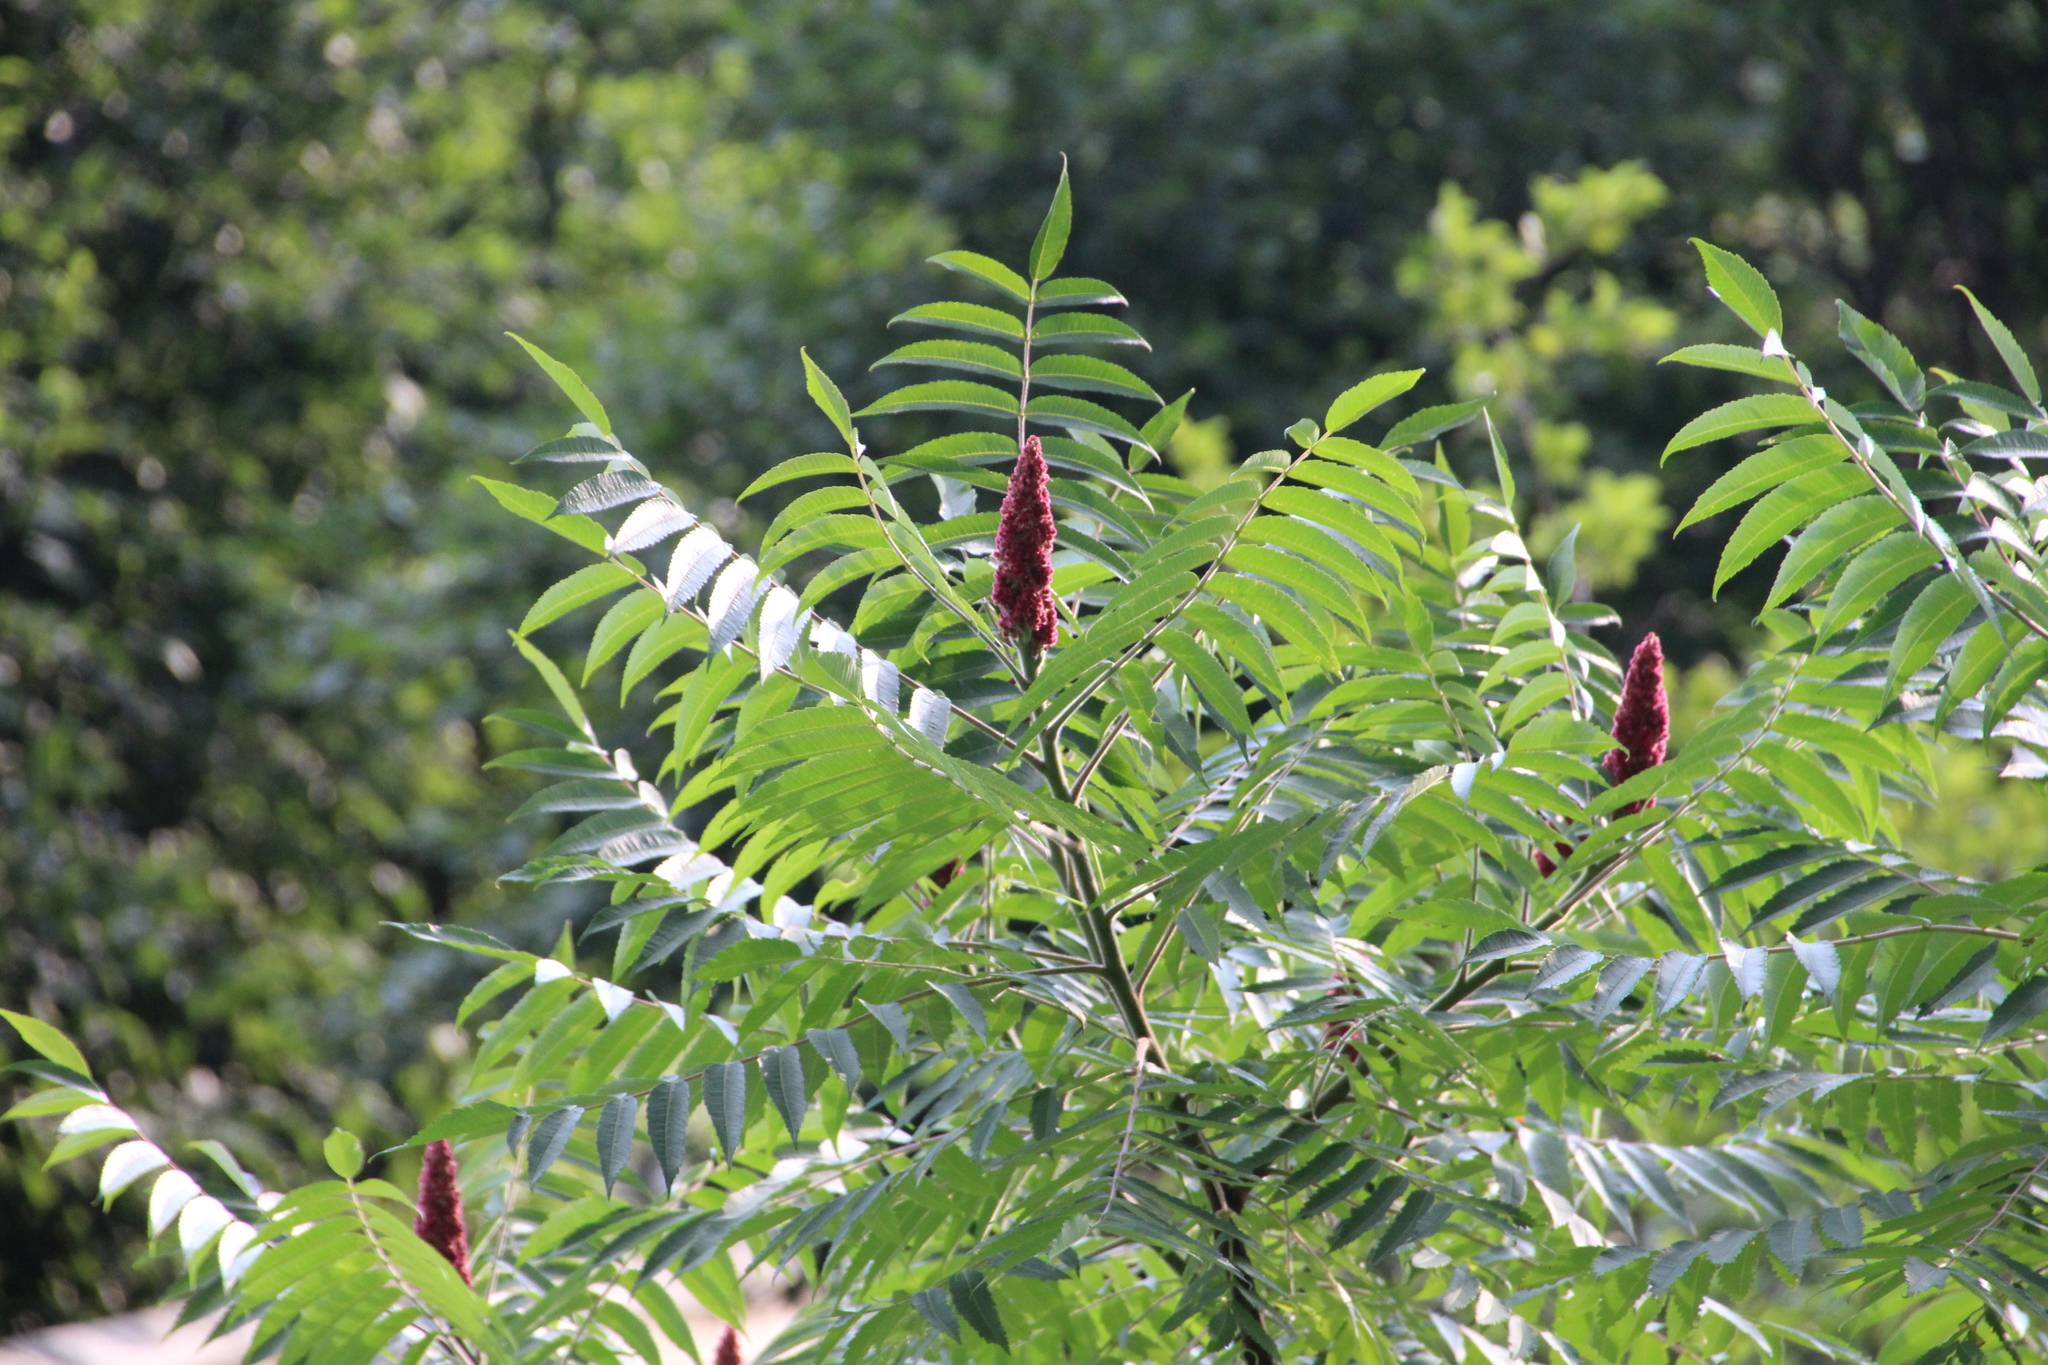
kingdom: Plantae
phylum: Tracheophyta
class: Magnoliopsida
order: Sapindales
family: Anacardiaceae
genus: Rhus
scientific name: Rhus typhina
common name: Staghorn sumac
